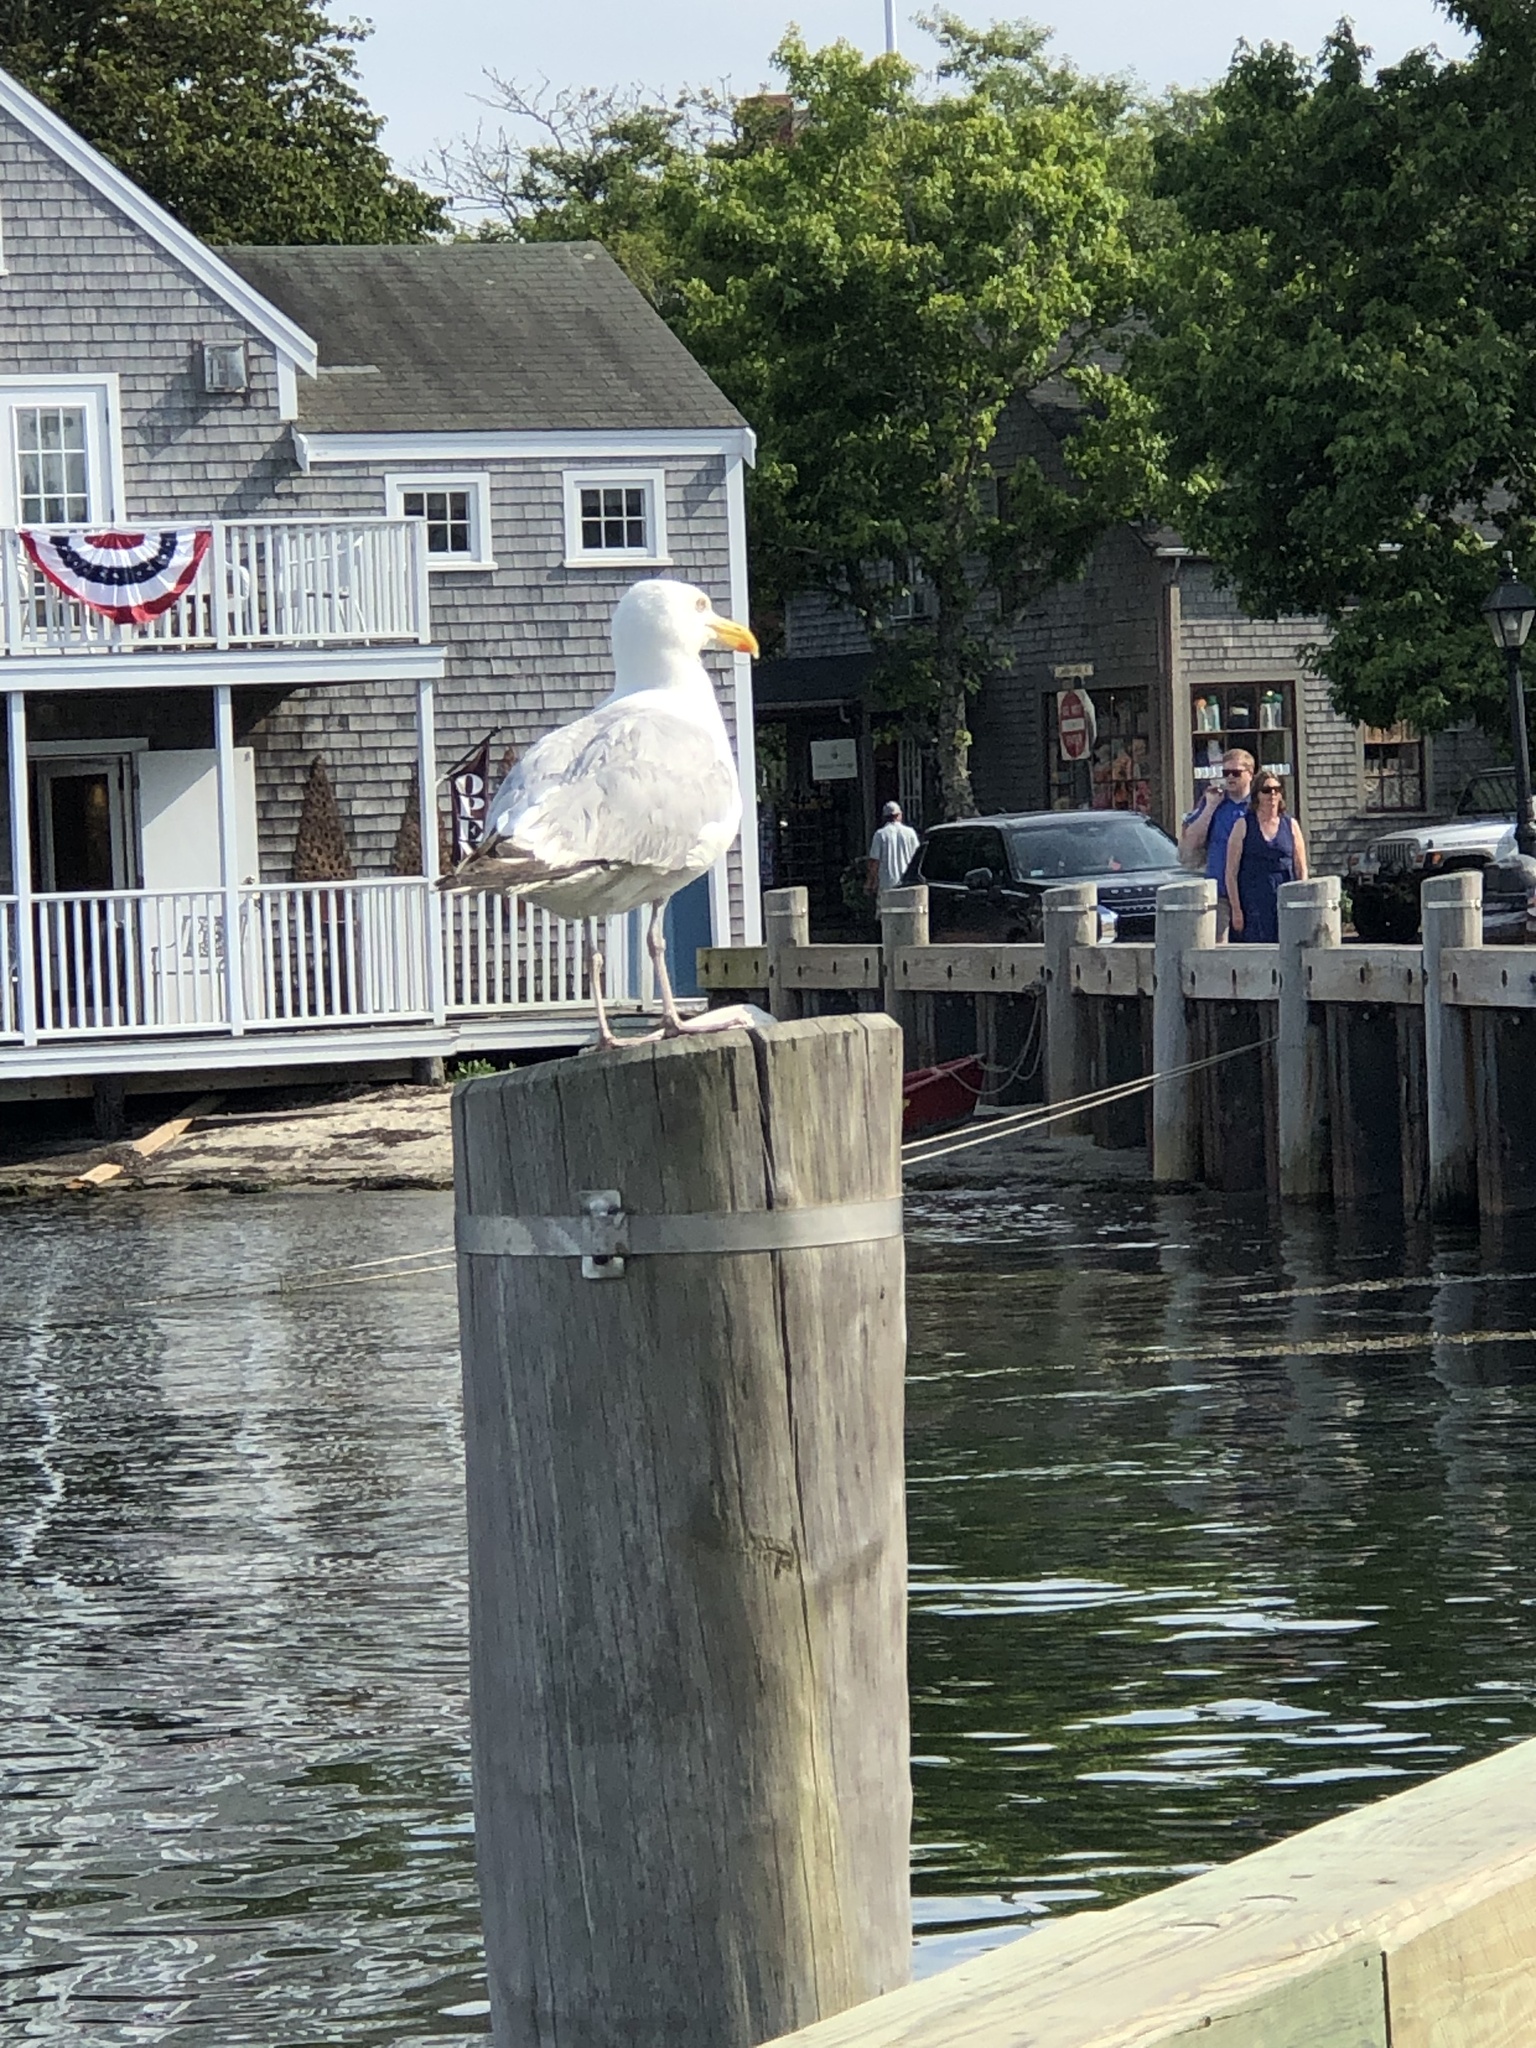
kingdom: Animalia
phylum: Chordata
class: Aves
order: Charadriiformes
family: Laridae
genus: Larus
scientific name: Larus argentatus
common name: Herring gull
